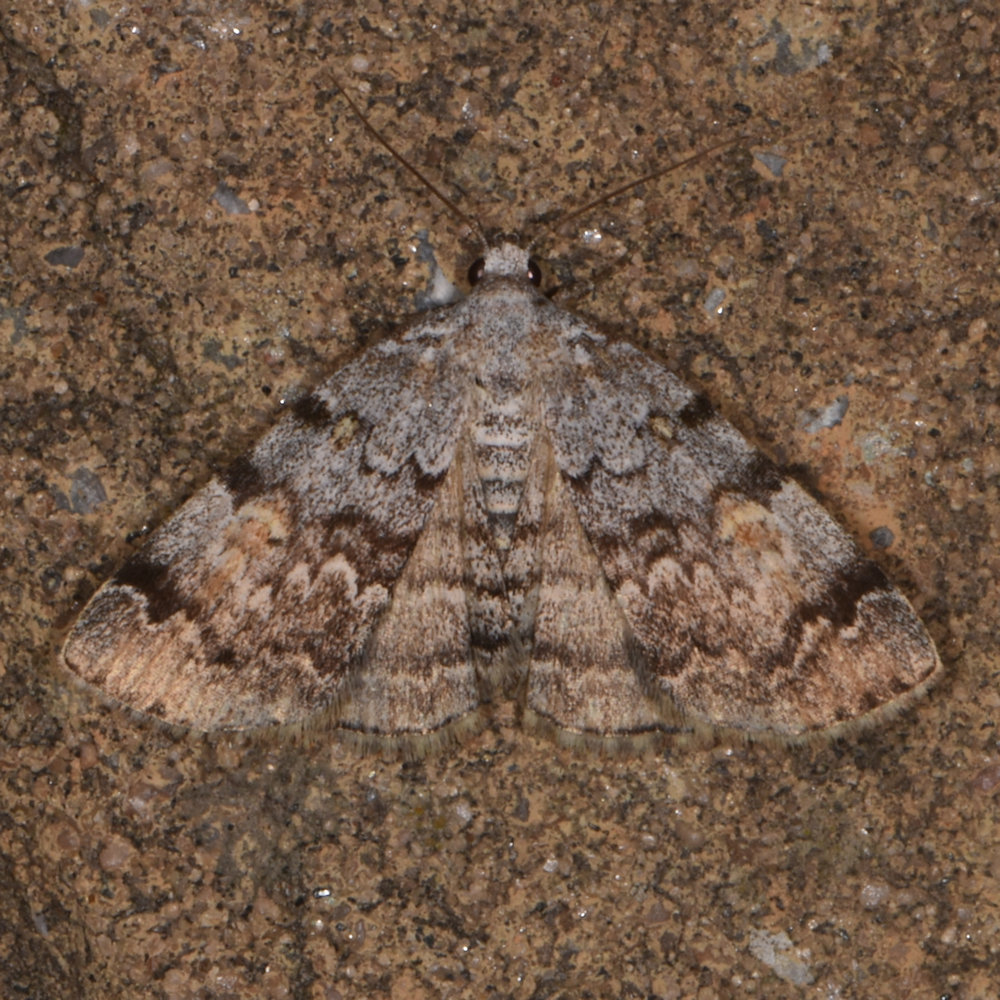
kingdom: Animalia
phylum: Arthropoda
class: Insecta
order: Lepidoptera
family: Erebidae
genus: Idia
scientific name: Idia americalis
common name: American idia moth
